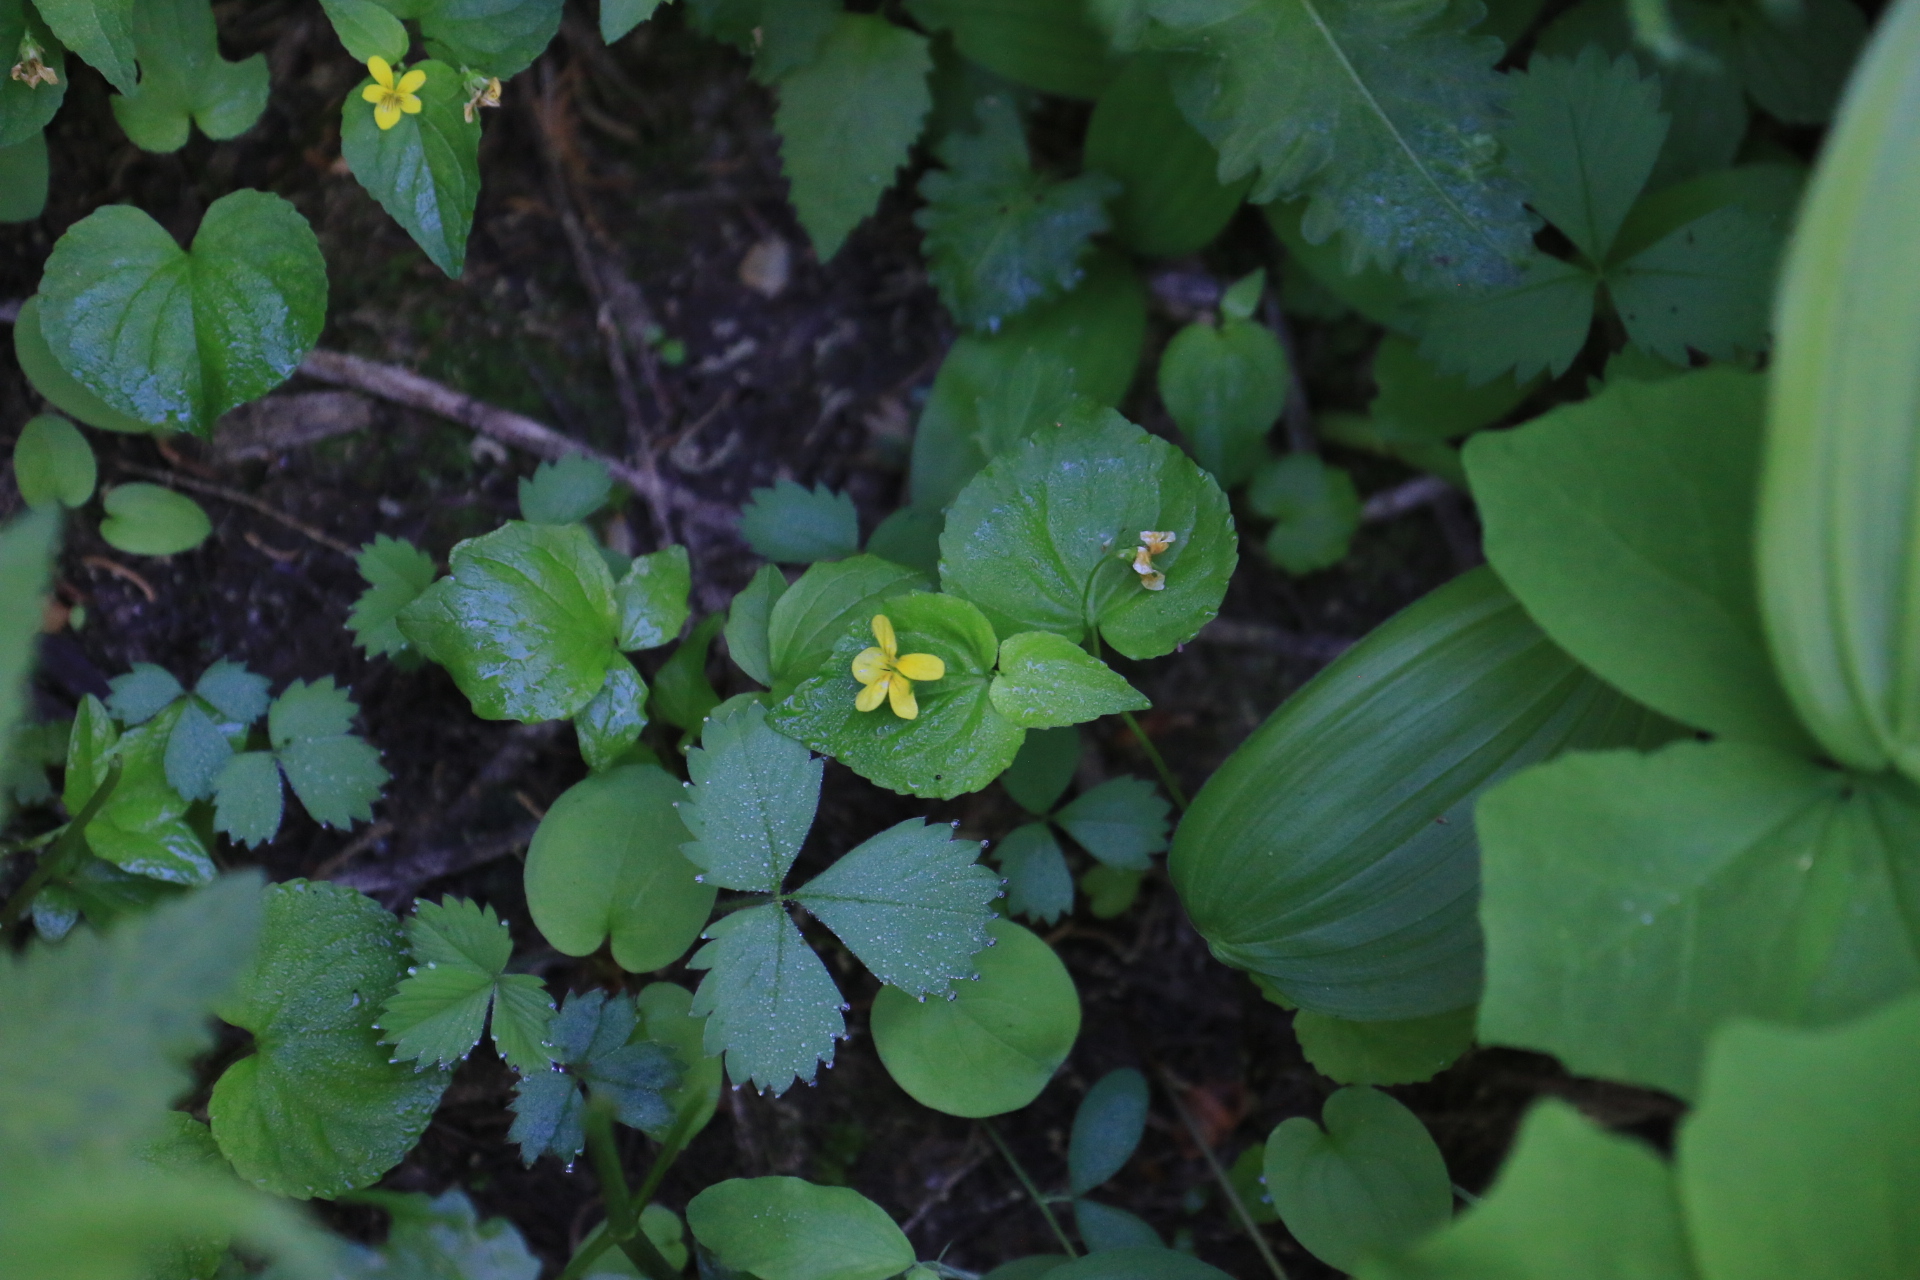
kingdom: Plantae
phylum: Tracheophyta
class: Magnoliopsida
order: Malpighiales
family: Violaceae
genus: Viola
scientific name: Viola glabella
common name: Stream violet
